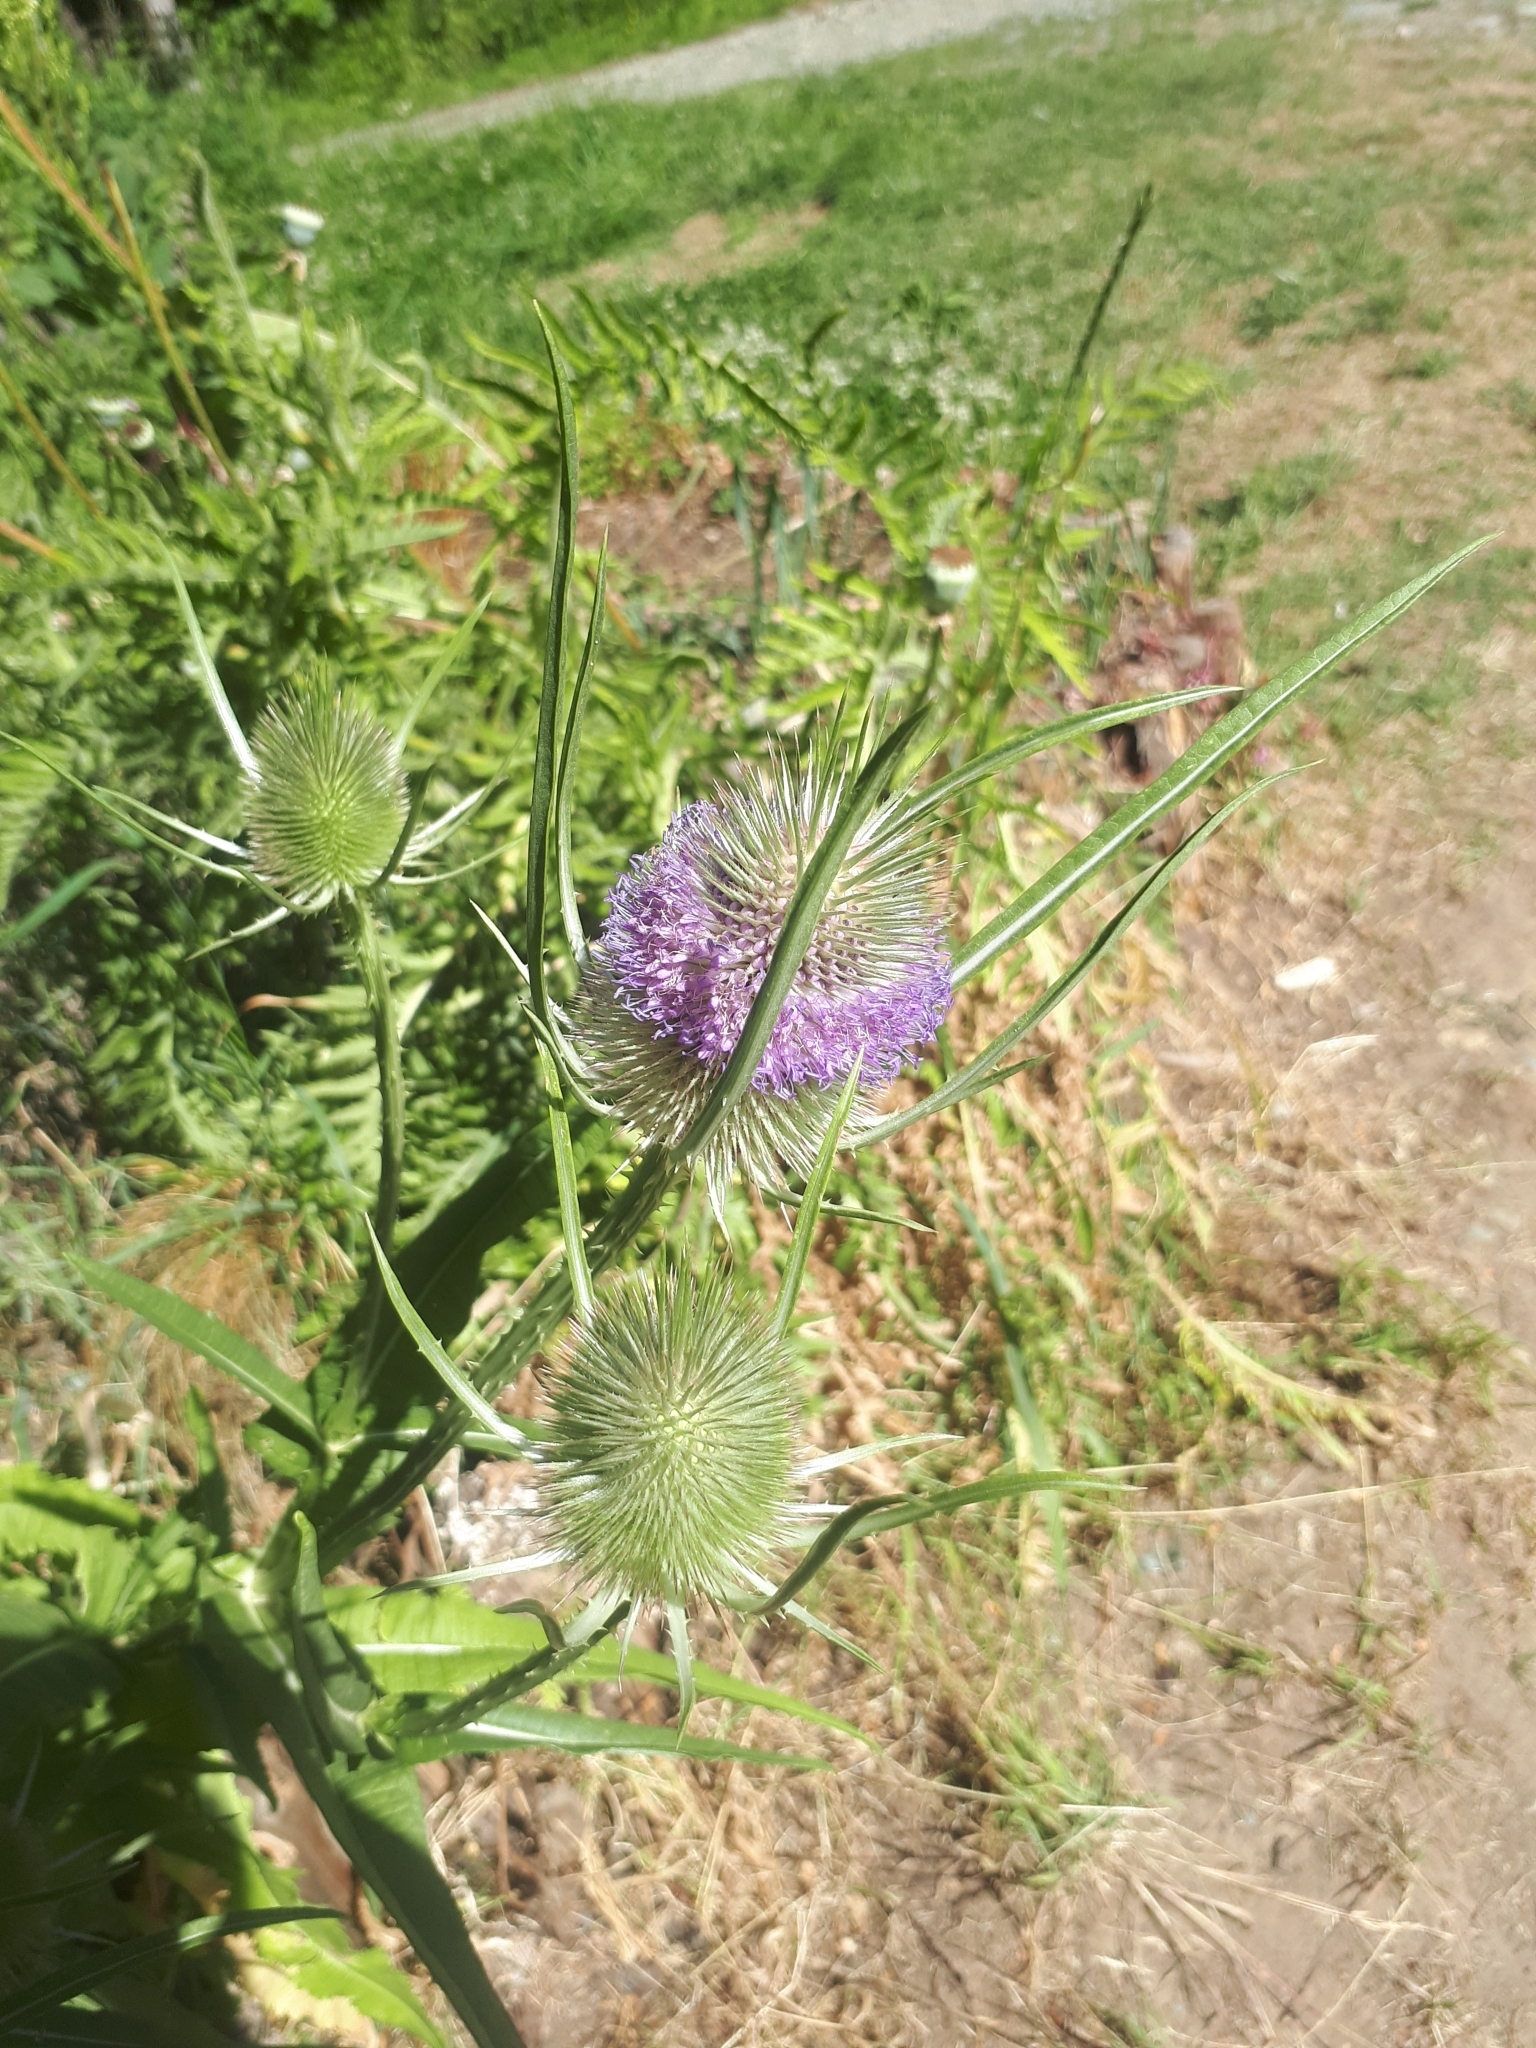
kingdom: Plantae
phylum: Tracheophyta
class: Magnoliopsida
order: Dipsacales
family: Caprifoliaceae
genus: Dipsacus
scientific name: Dipsacus fullonum
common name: Teasel
